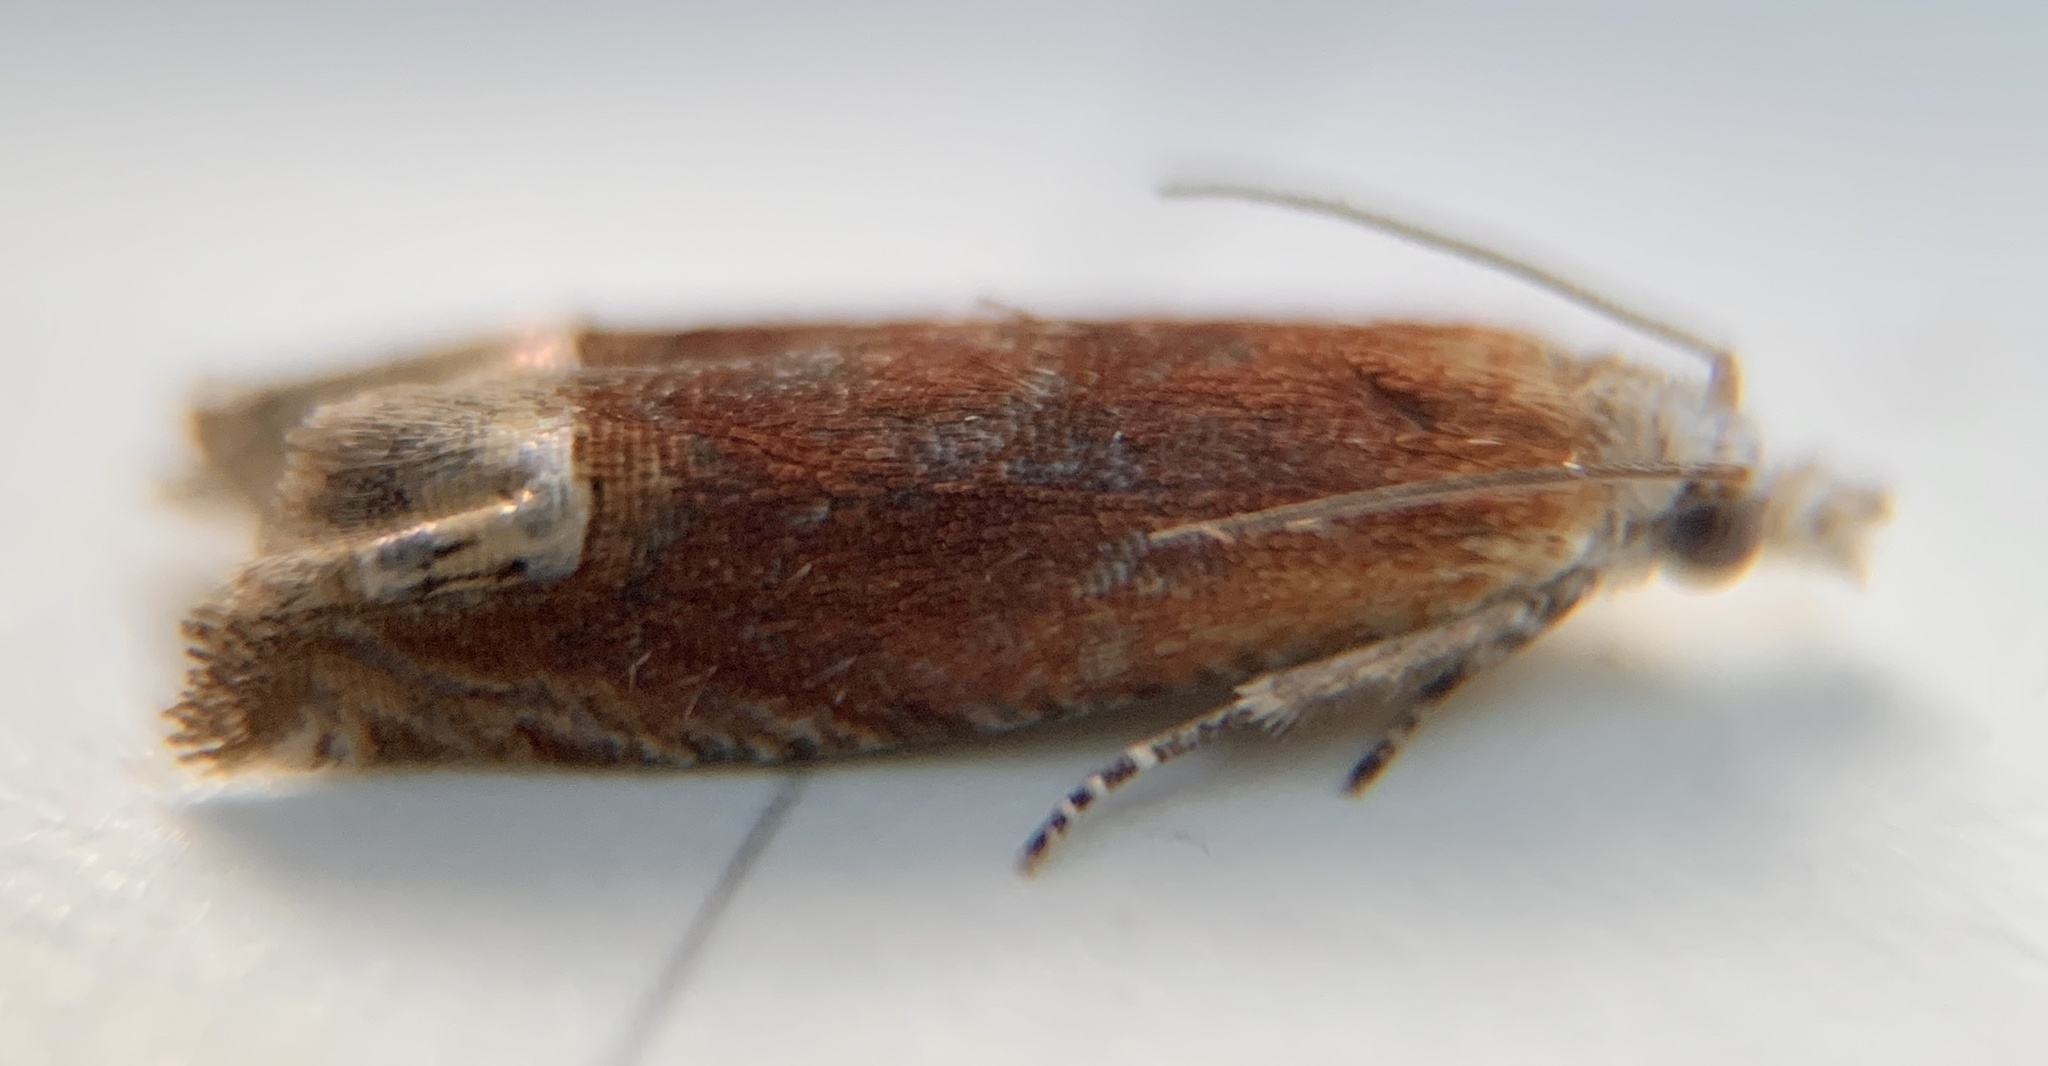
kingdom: Animalia
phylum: Arthropoda
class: Insecta
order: Lepidoptera
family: Tortricidae
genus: Eucosma
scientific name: Eucosma raracana
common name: Reddish eucosma moth
